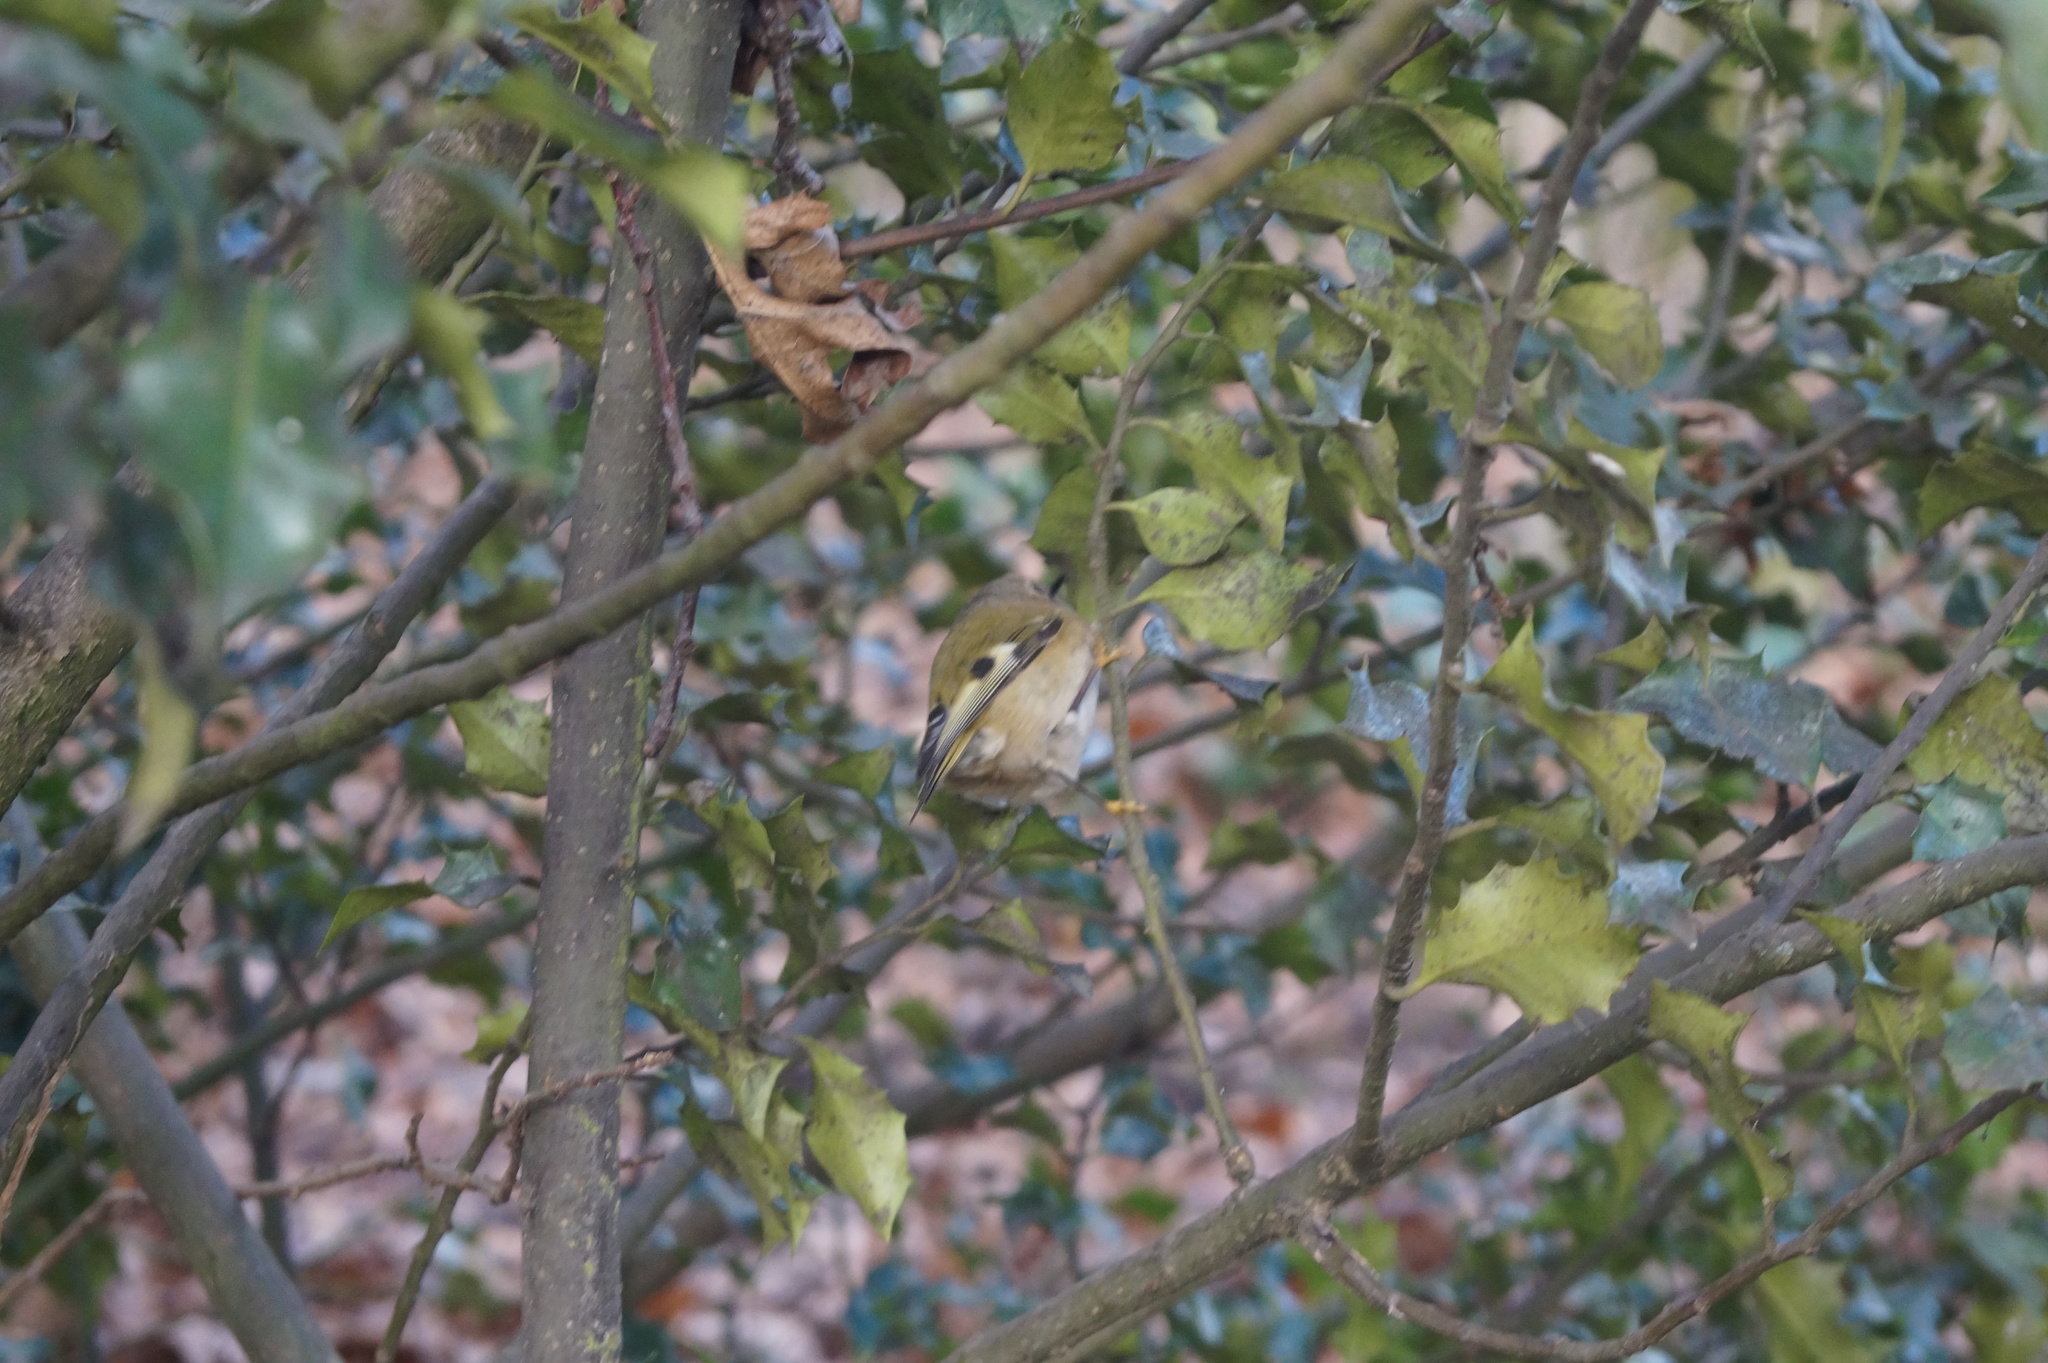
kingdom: Animalia
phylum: Chordata
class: Aves
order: Passeriformes
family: Regulidae
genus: Regulus
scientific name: Regulus regulus
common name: Goldcrest
